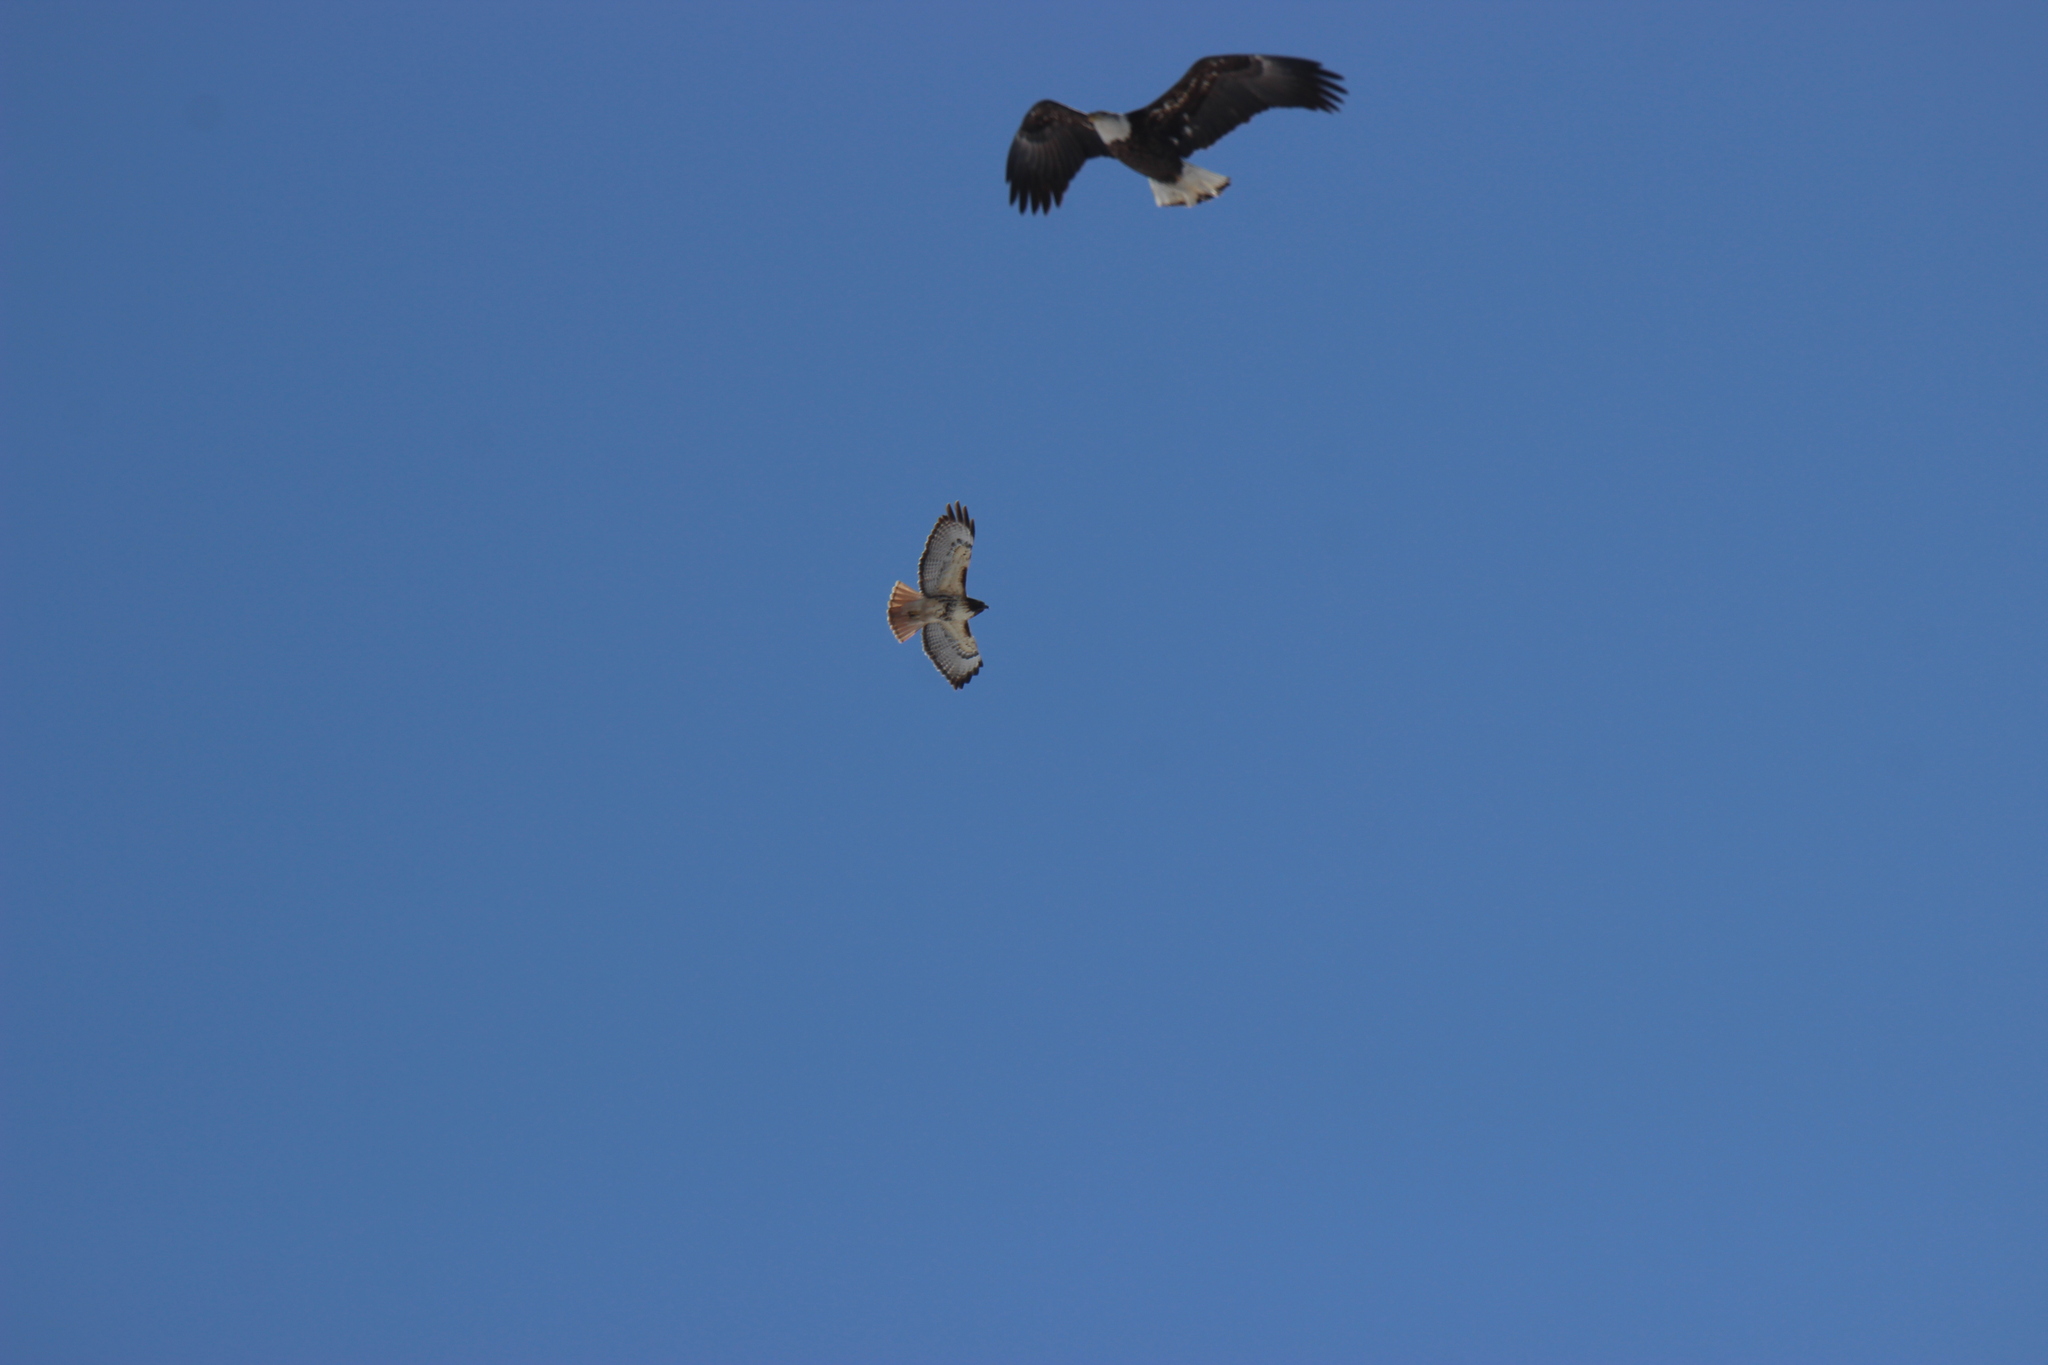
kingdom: Animalia
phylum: Chordata
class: Aves
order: Accipitriformes
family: Accipitridae
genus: Haliaeetus
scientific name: Haliaeetus leucocephalus
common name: Bald eagle
